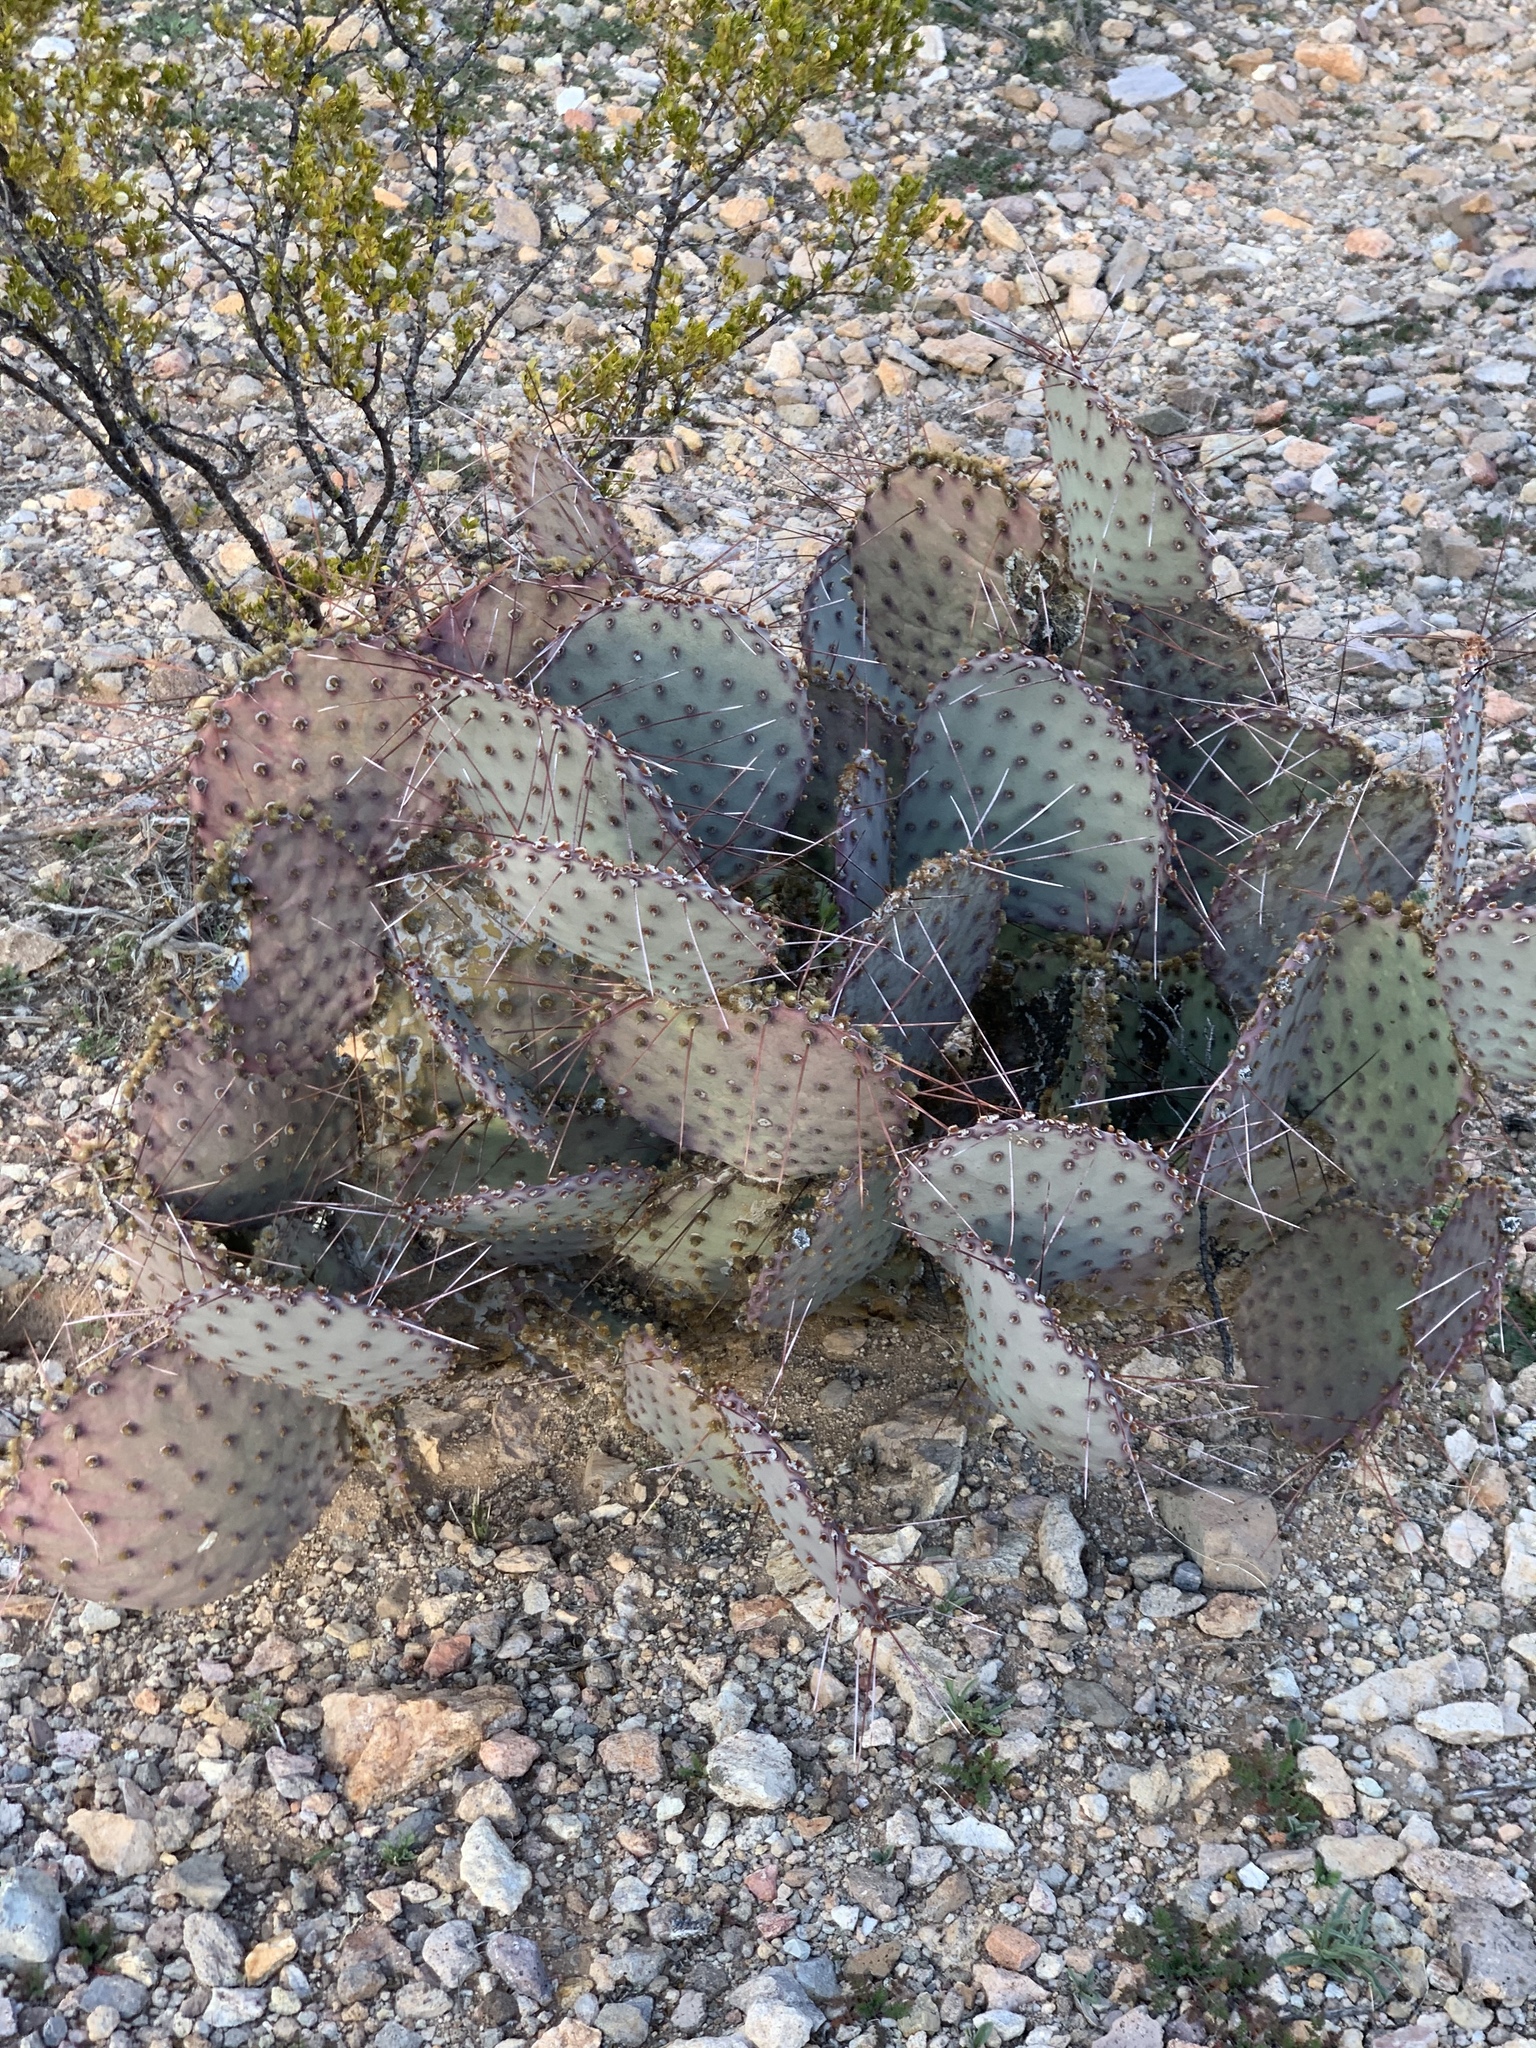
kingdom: Plantae
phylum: Tracheophyta
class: Magnoliopsida
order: Caryophyllales
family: Cactaceae
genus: Opuntia
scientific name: Opuntia macrocentra
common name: Purple prickly-pear
